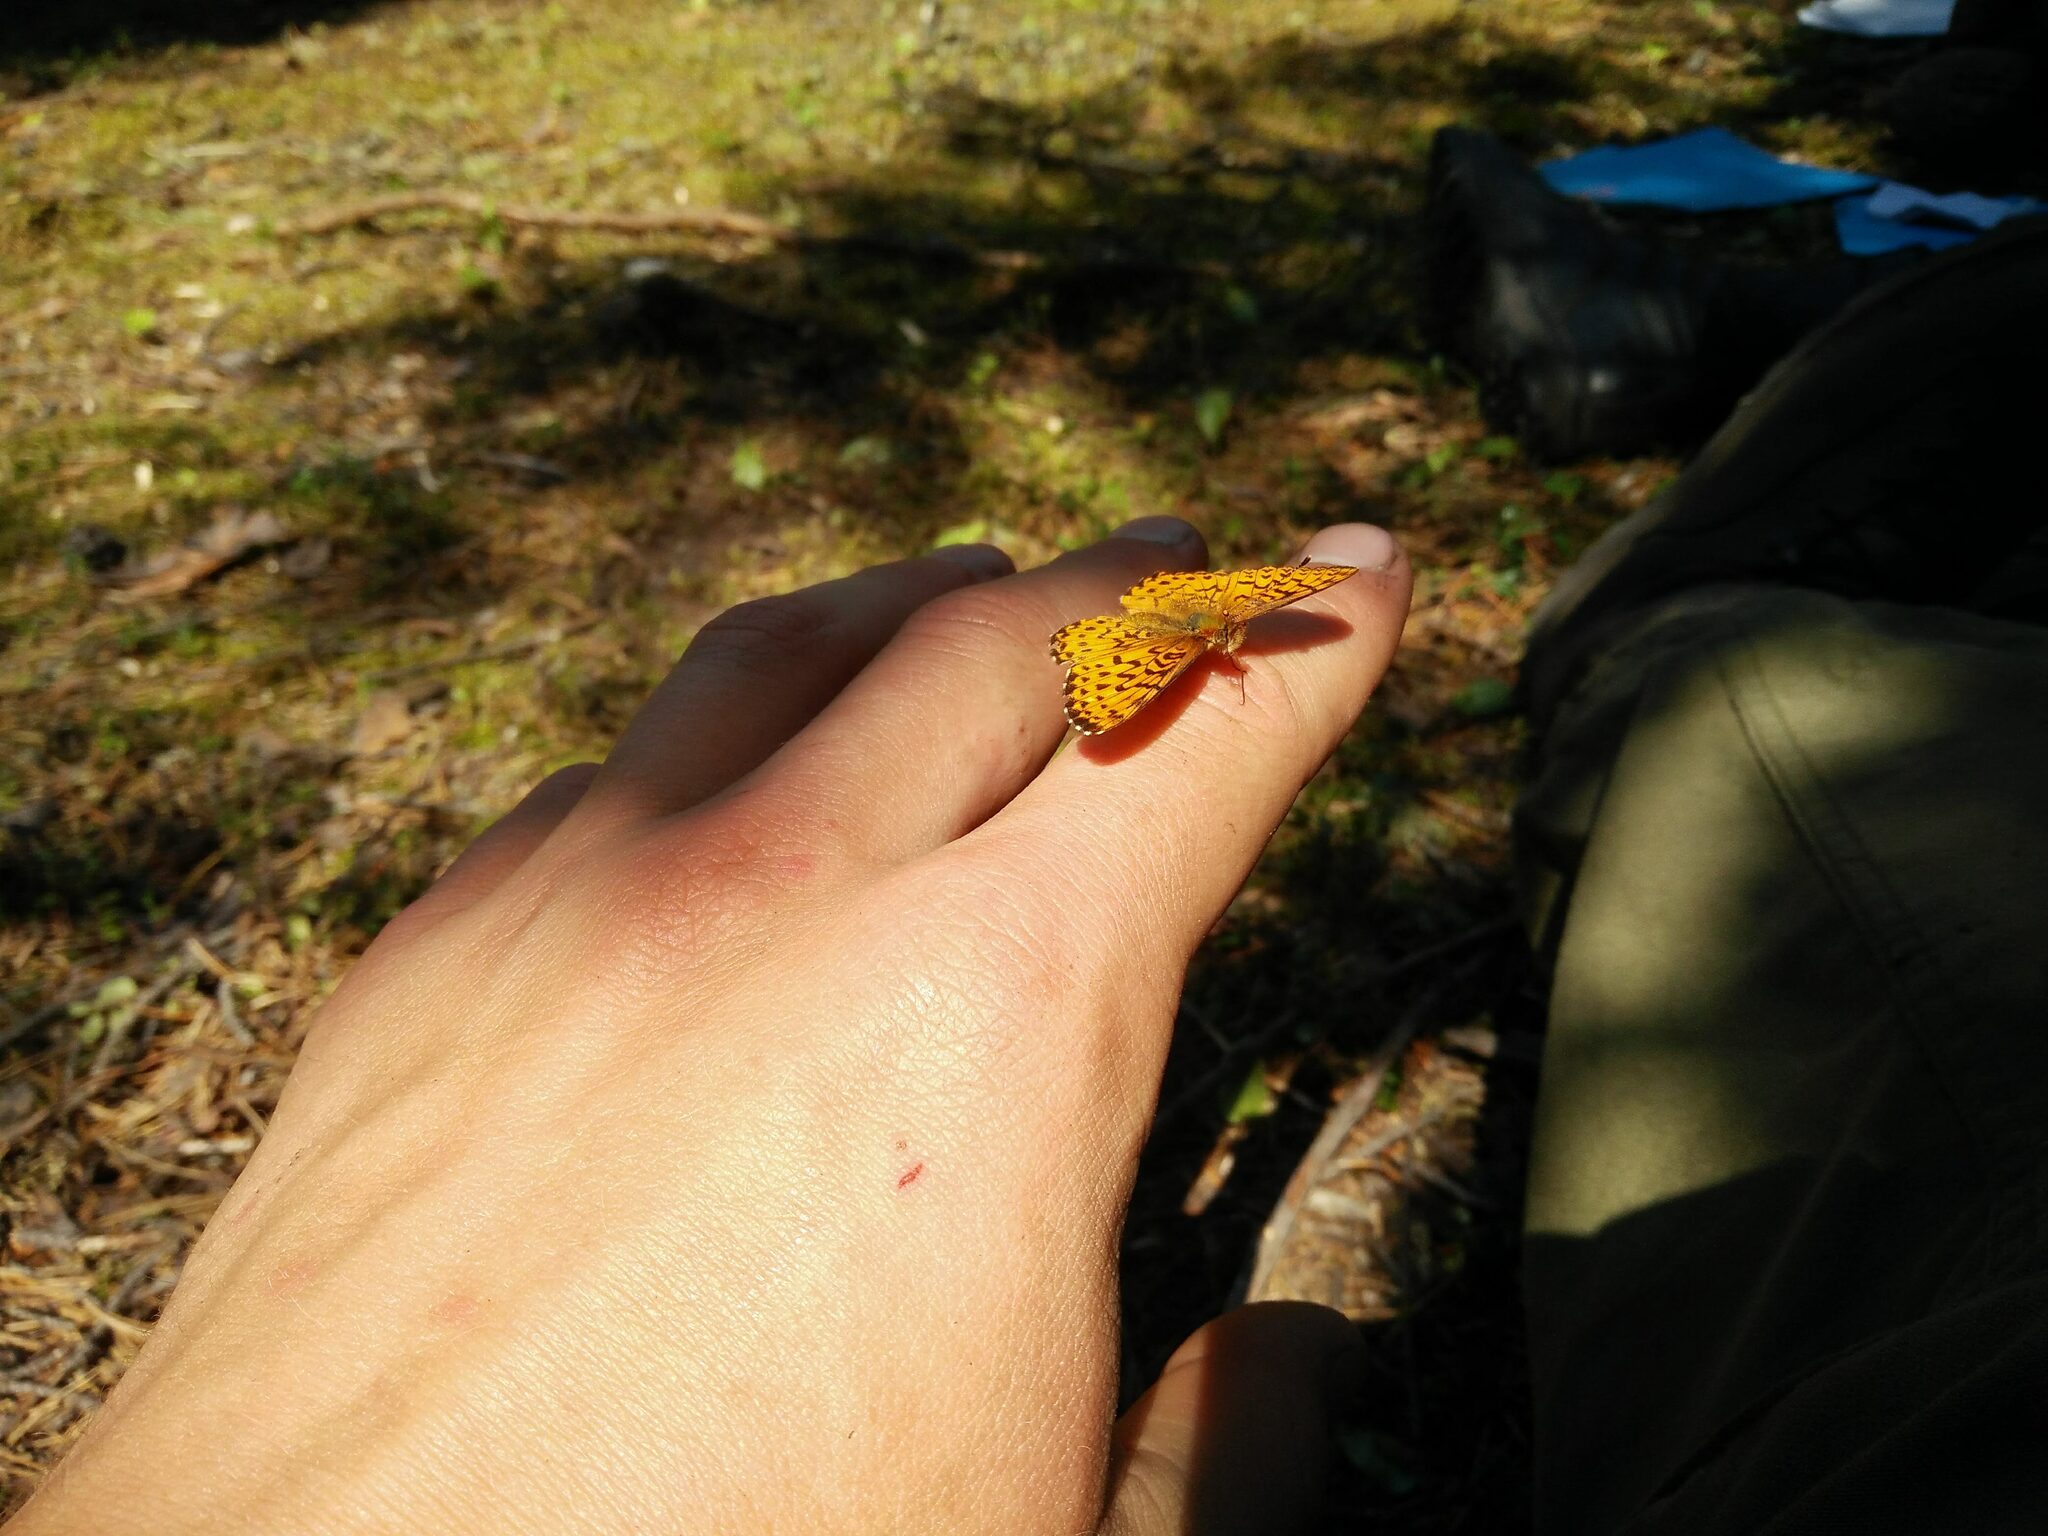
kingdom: Animalia
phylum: Arthropoda
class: Insecta
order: Lepidoptera
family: Nymphalidae
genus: Boloria
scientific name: Boloria chariclea
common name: Arctic fritillary
